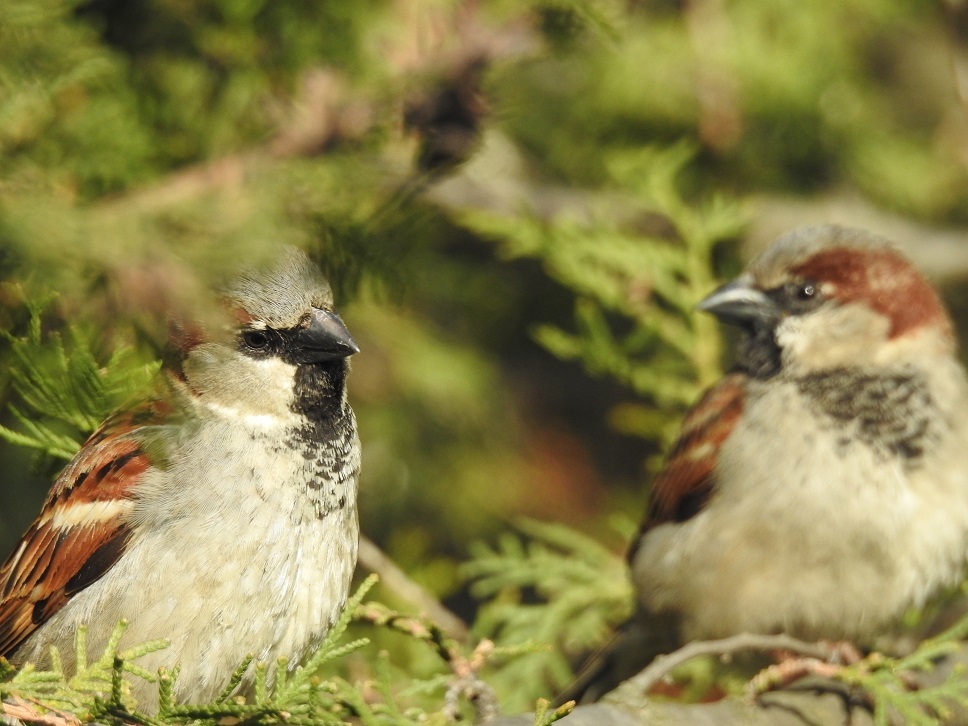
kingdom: Animalia
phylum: Chordata
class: Aves
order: Passeriformes
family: Passeridae
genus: Passer
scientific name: Passer domesticus
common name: House sparrow
